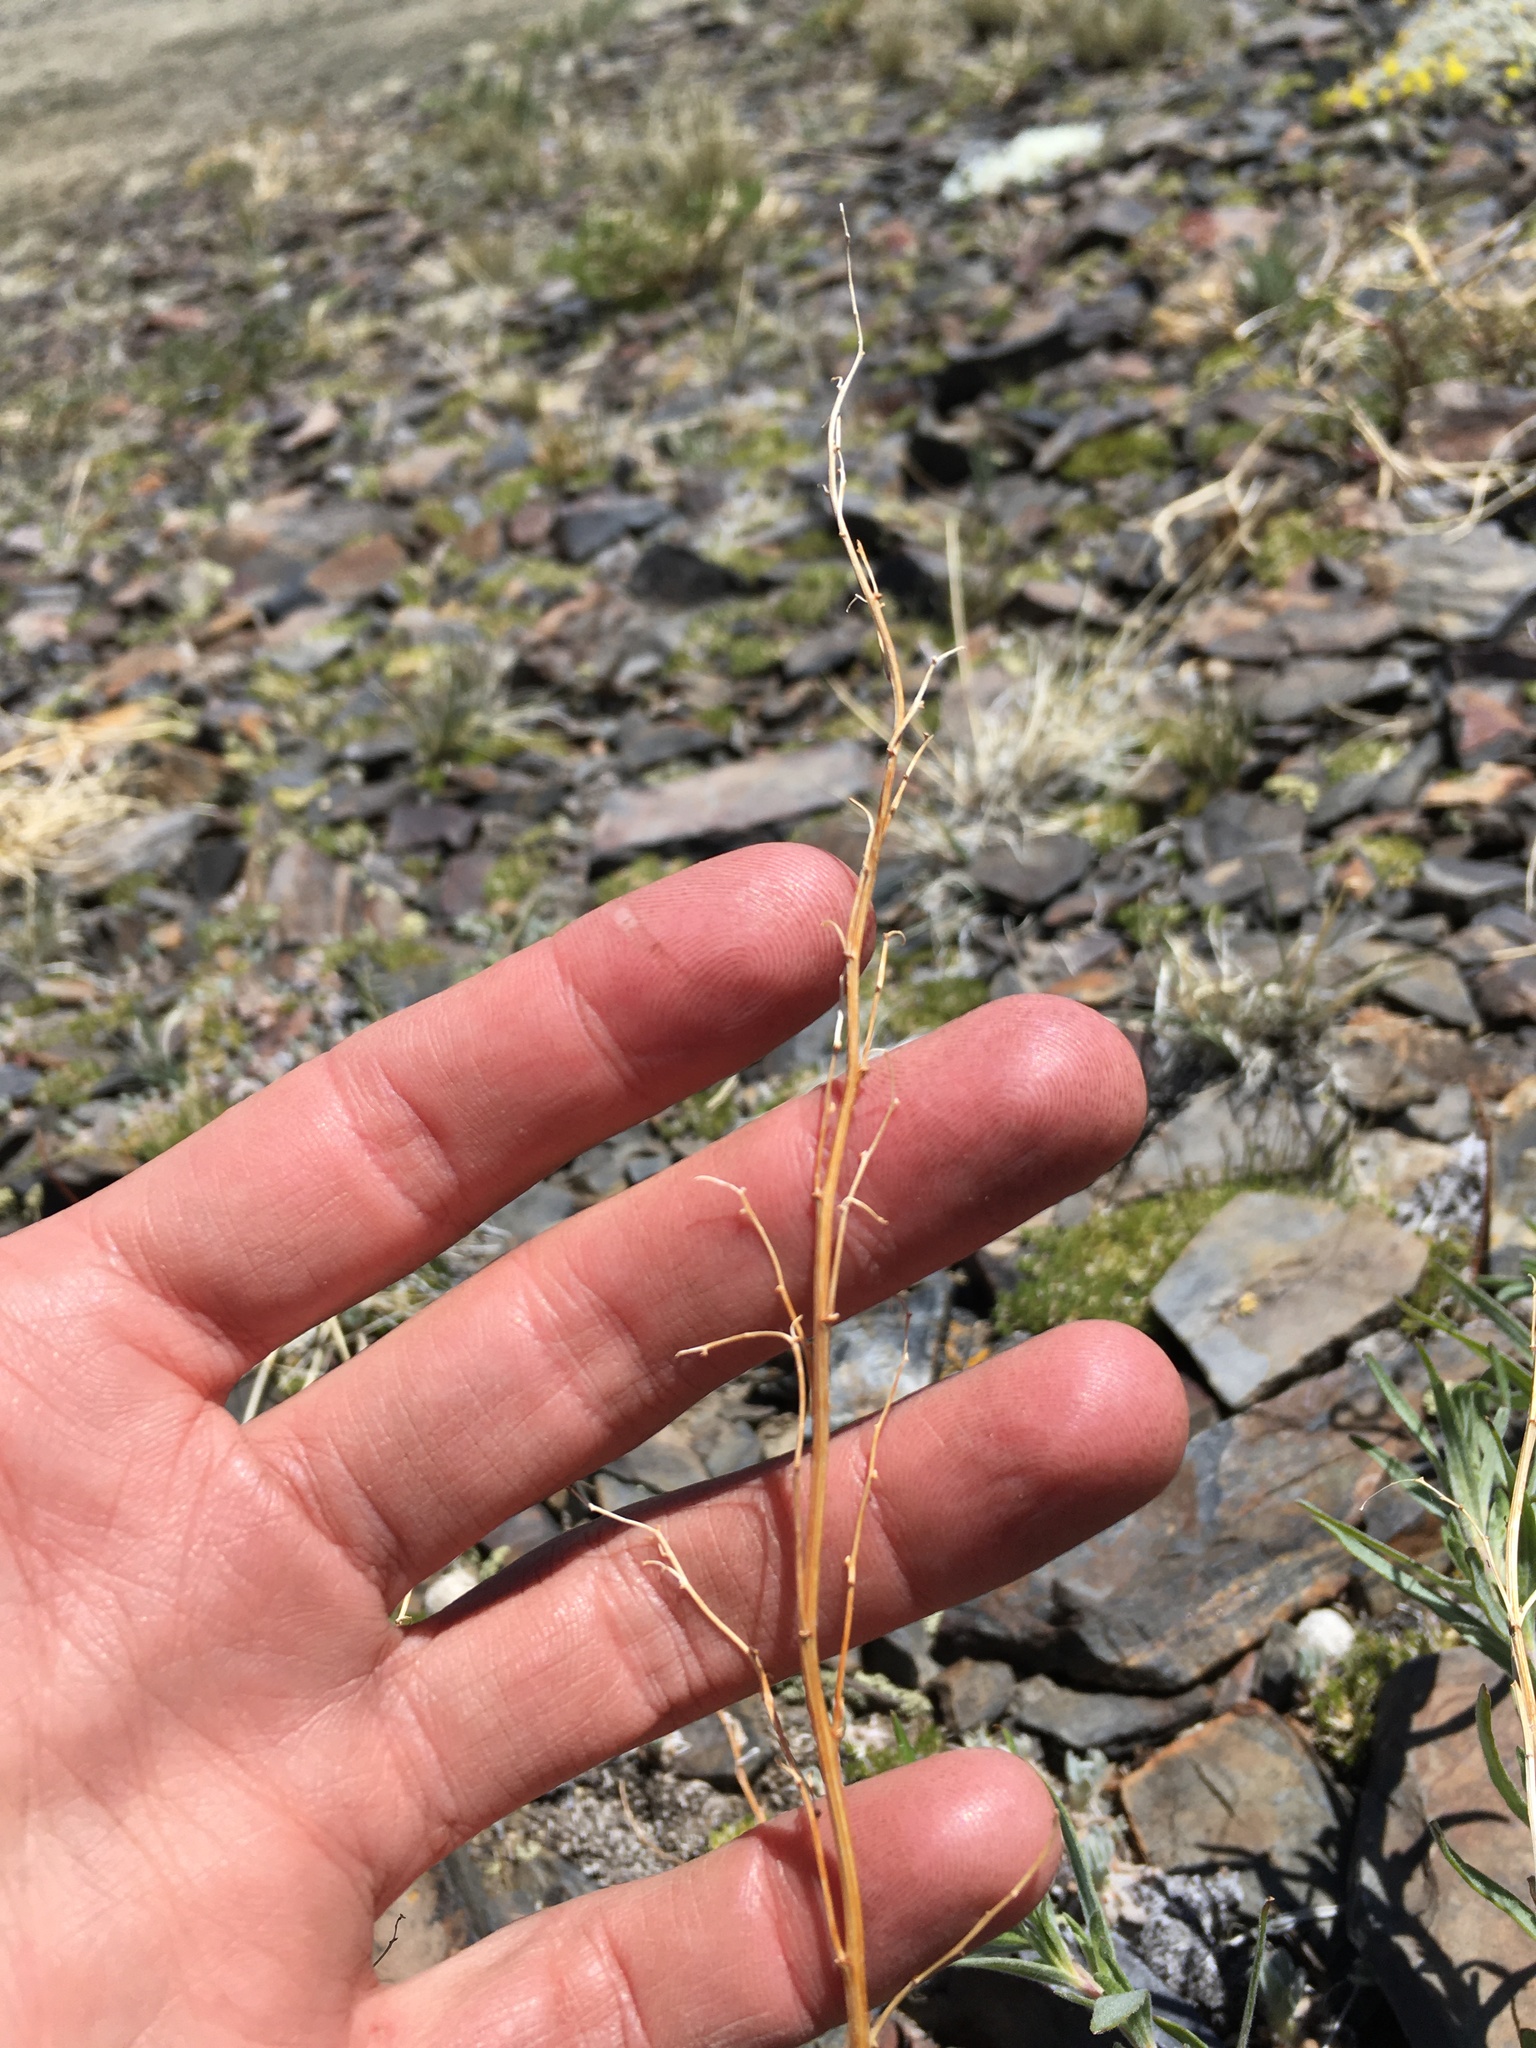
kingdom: Plantae
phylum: Tracheophyta
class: Magnoliopsida
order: Asterales
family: Asteraceae
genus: Artemisia
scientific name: Artemisia dracunculus
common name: Tarragon
